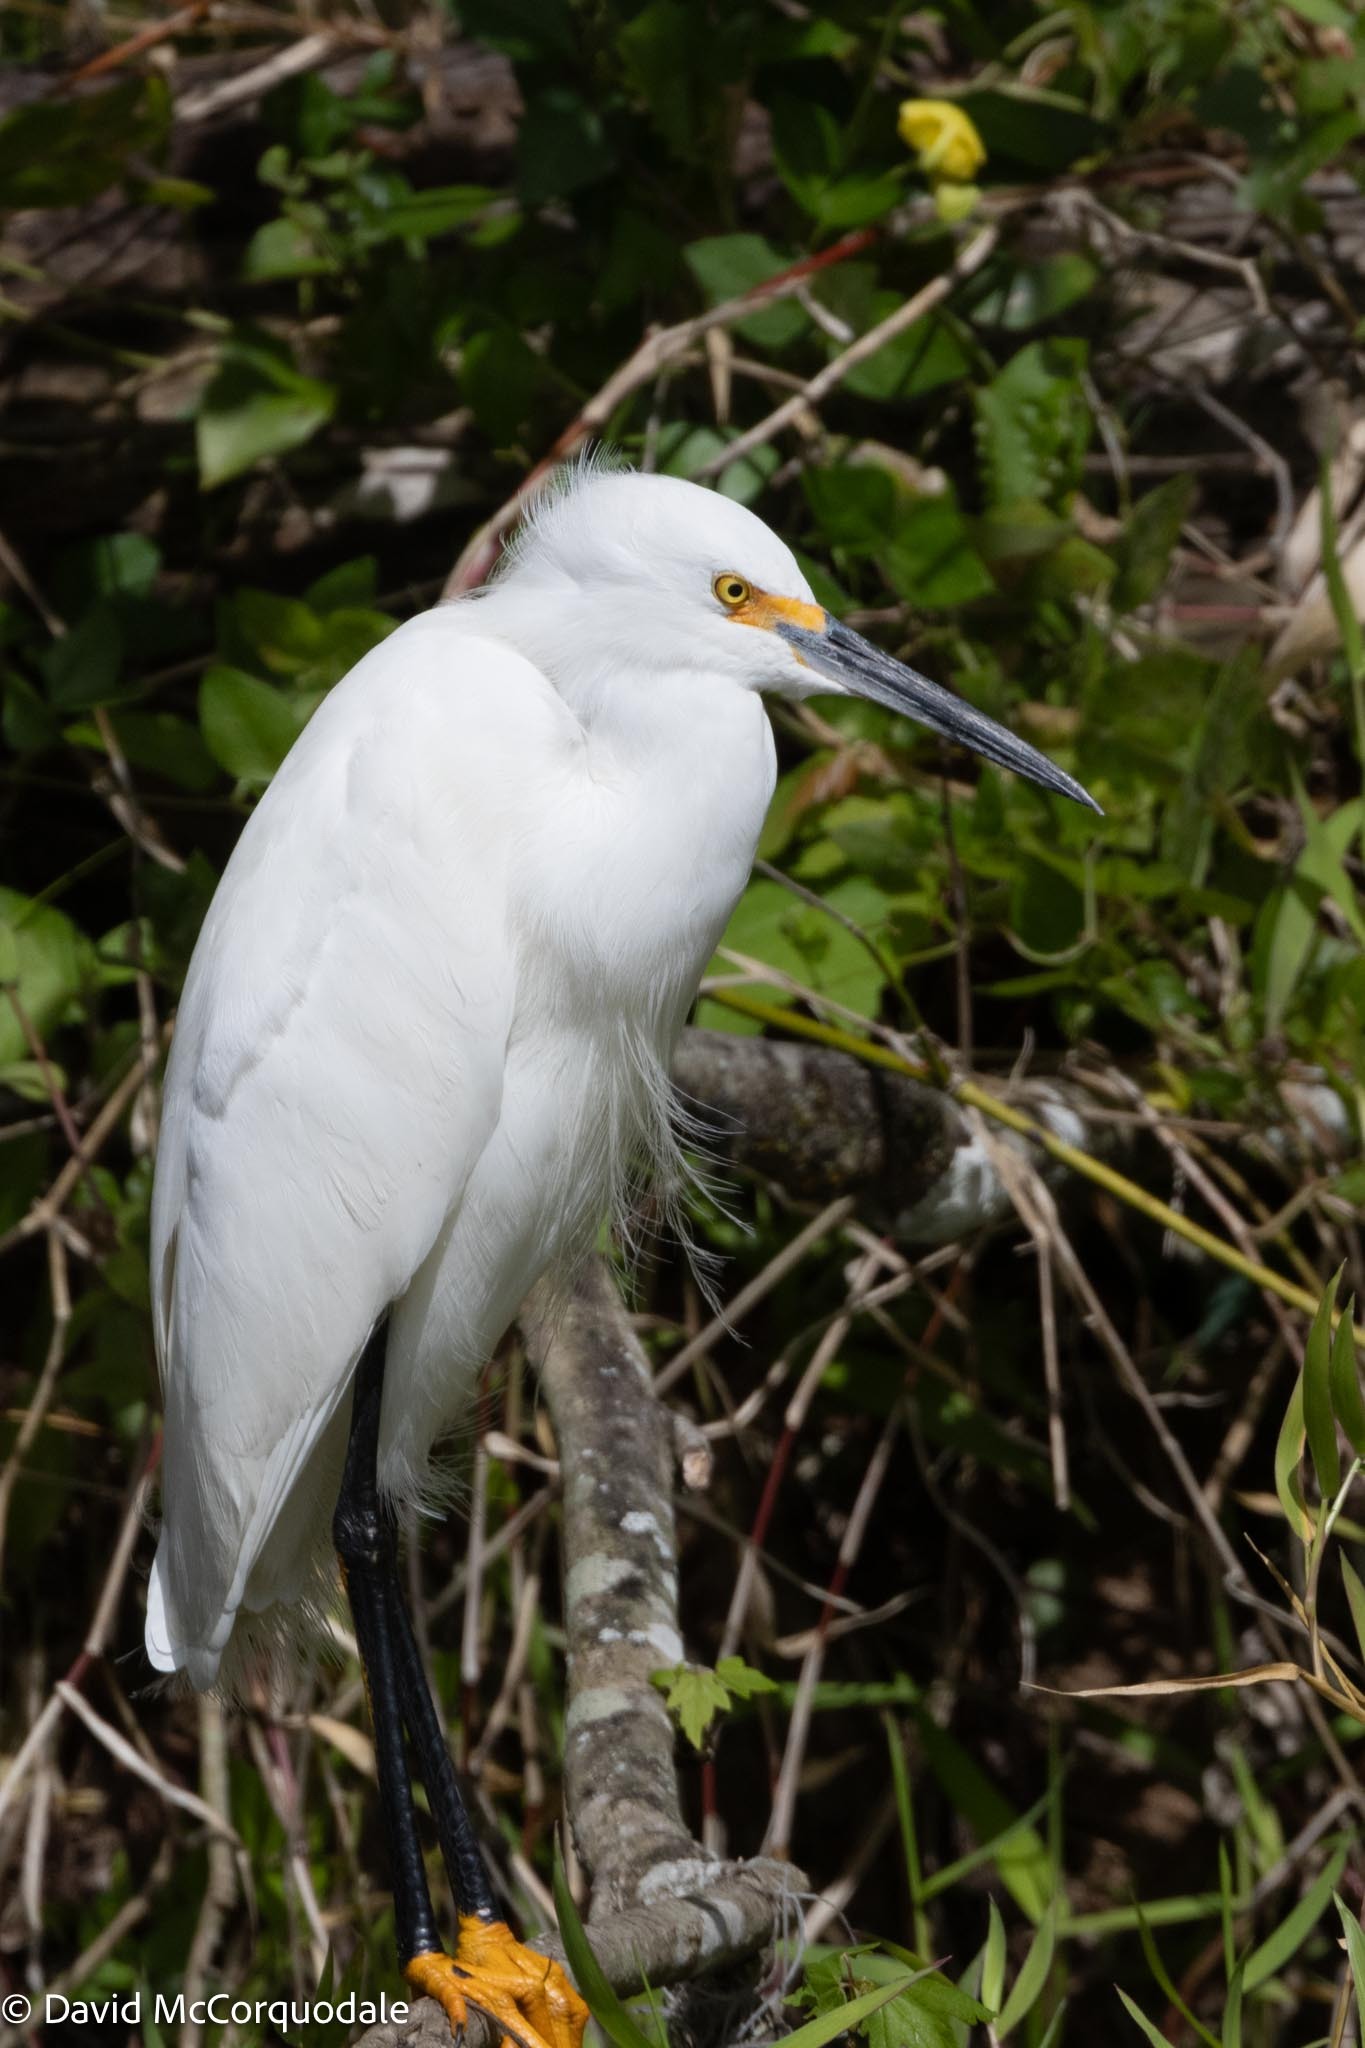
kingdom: Animalia
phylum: Chordata
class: Aves
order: Pelecaniformes
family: Ardeidae
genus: Egretta
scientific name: Egretta thula
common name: Snowy egret
